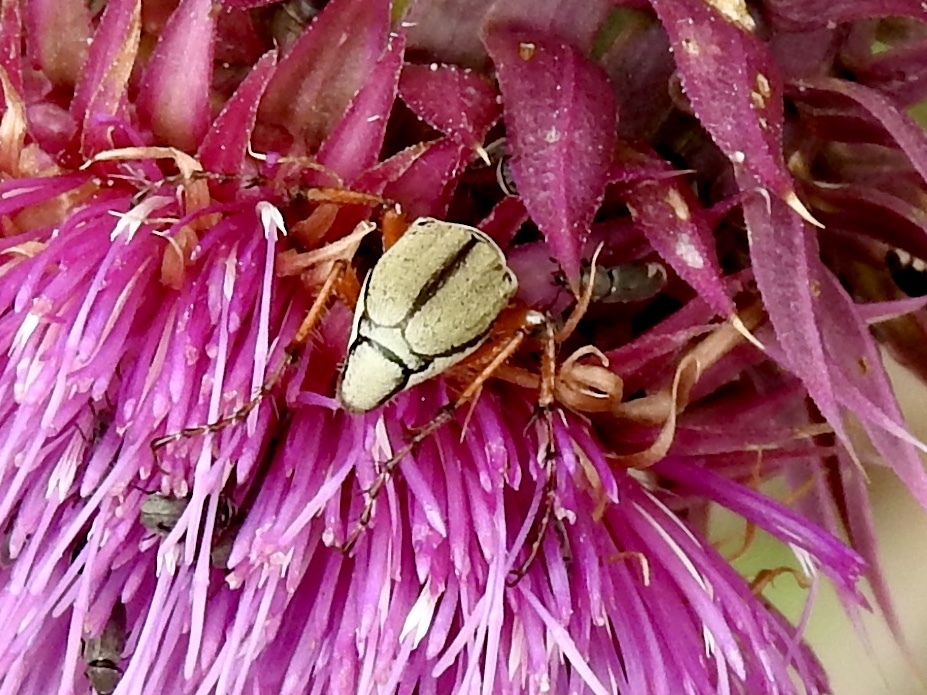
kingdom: Animalia
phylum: Arthropoda
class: Insecta
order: Coleoptera
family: Scarabaeidae
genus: Macrodactylus
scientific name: Macrodactylus uniformis
